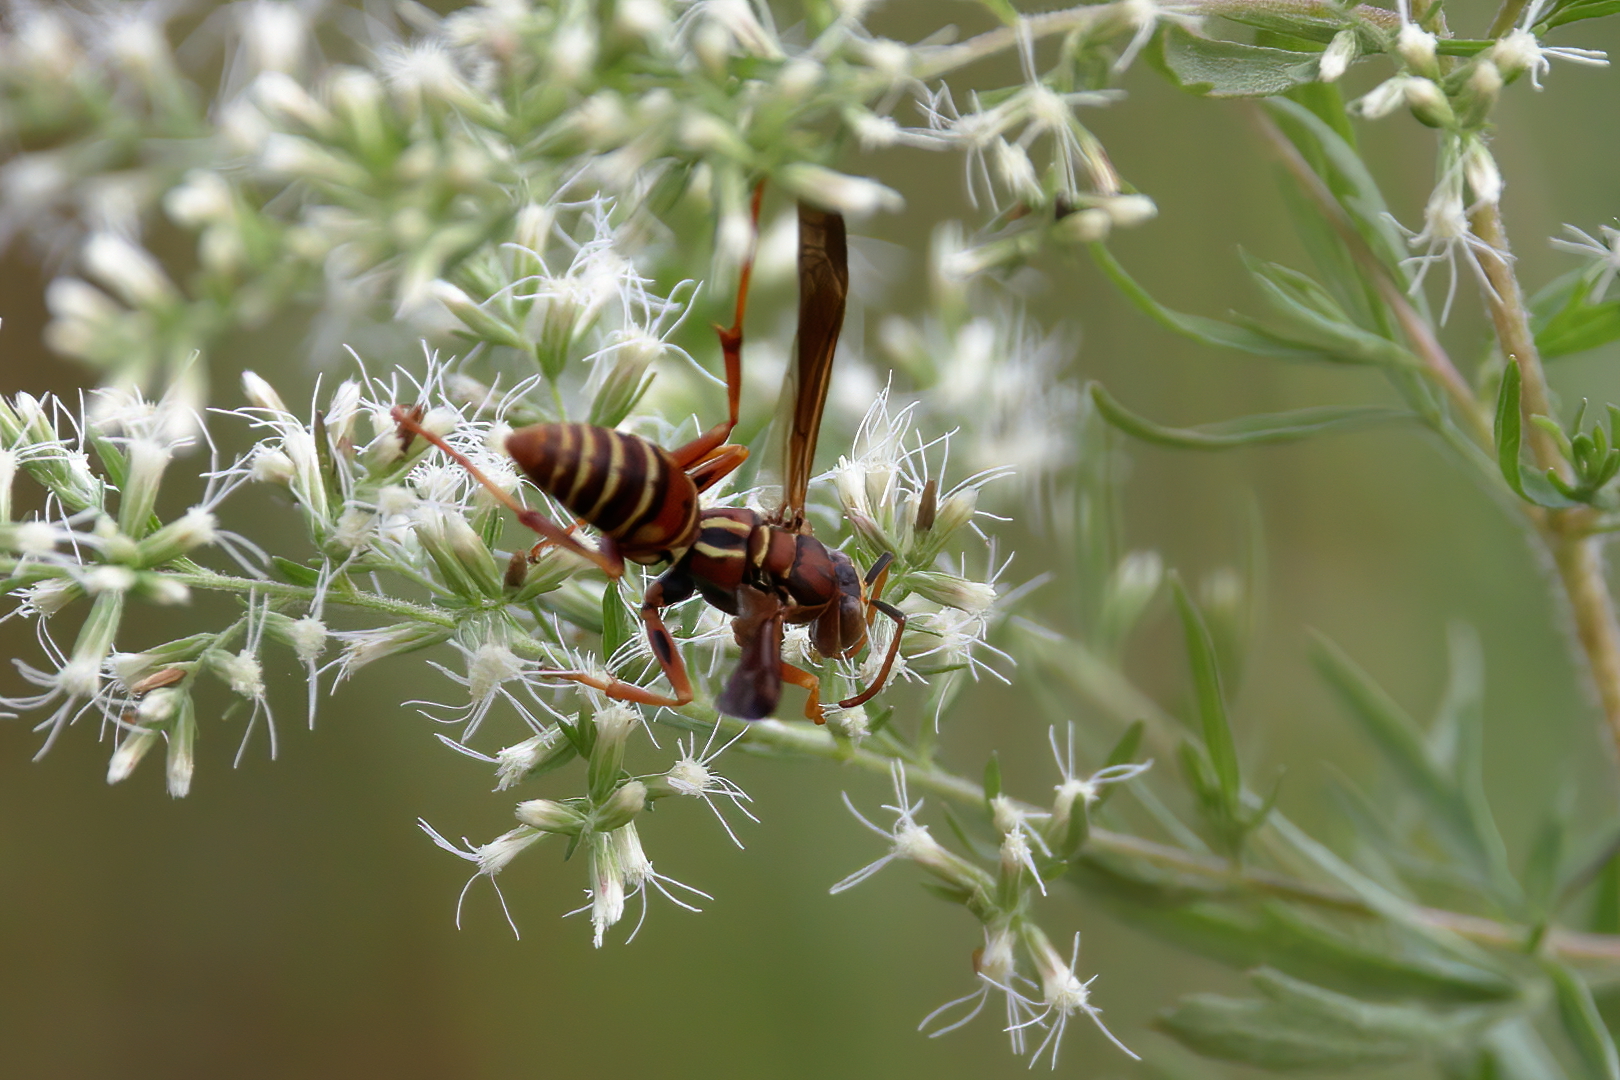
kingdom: Animalia
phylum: Arthropoda
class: Insecta
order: Hymenoptera
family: Eumenidae
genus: Polistes
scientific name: Polistes dorsalis
